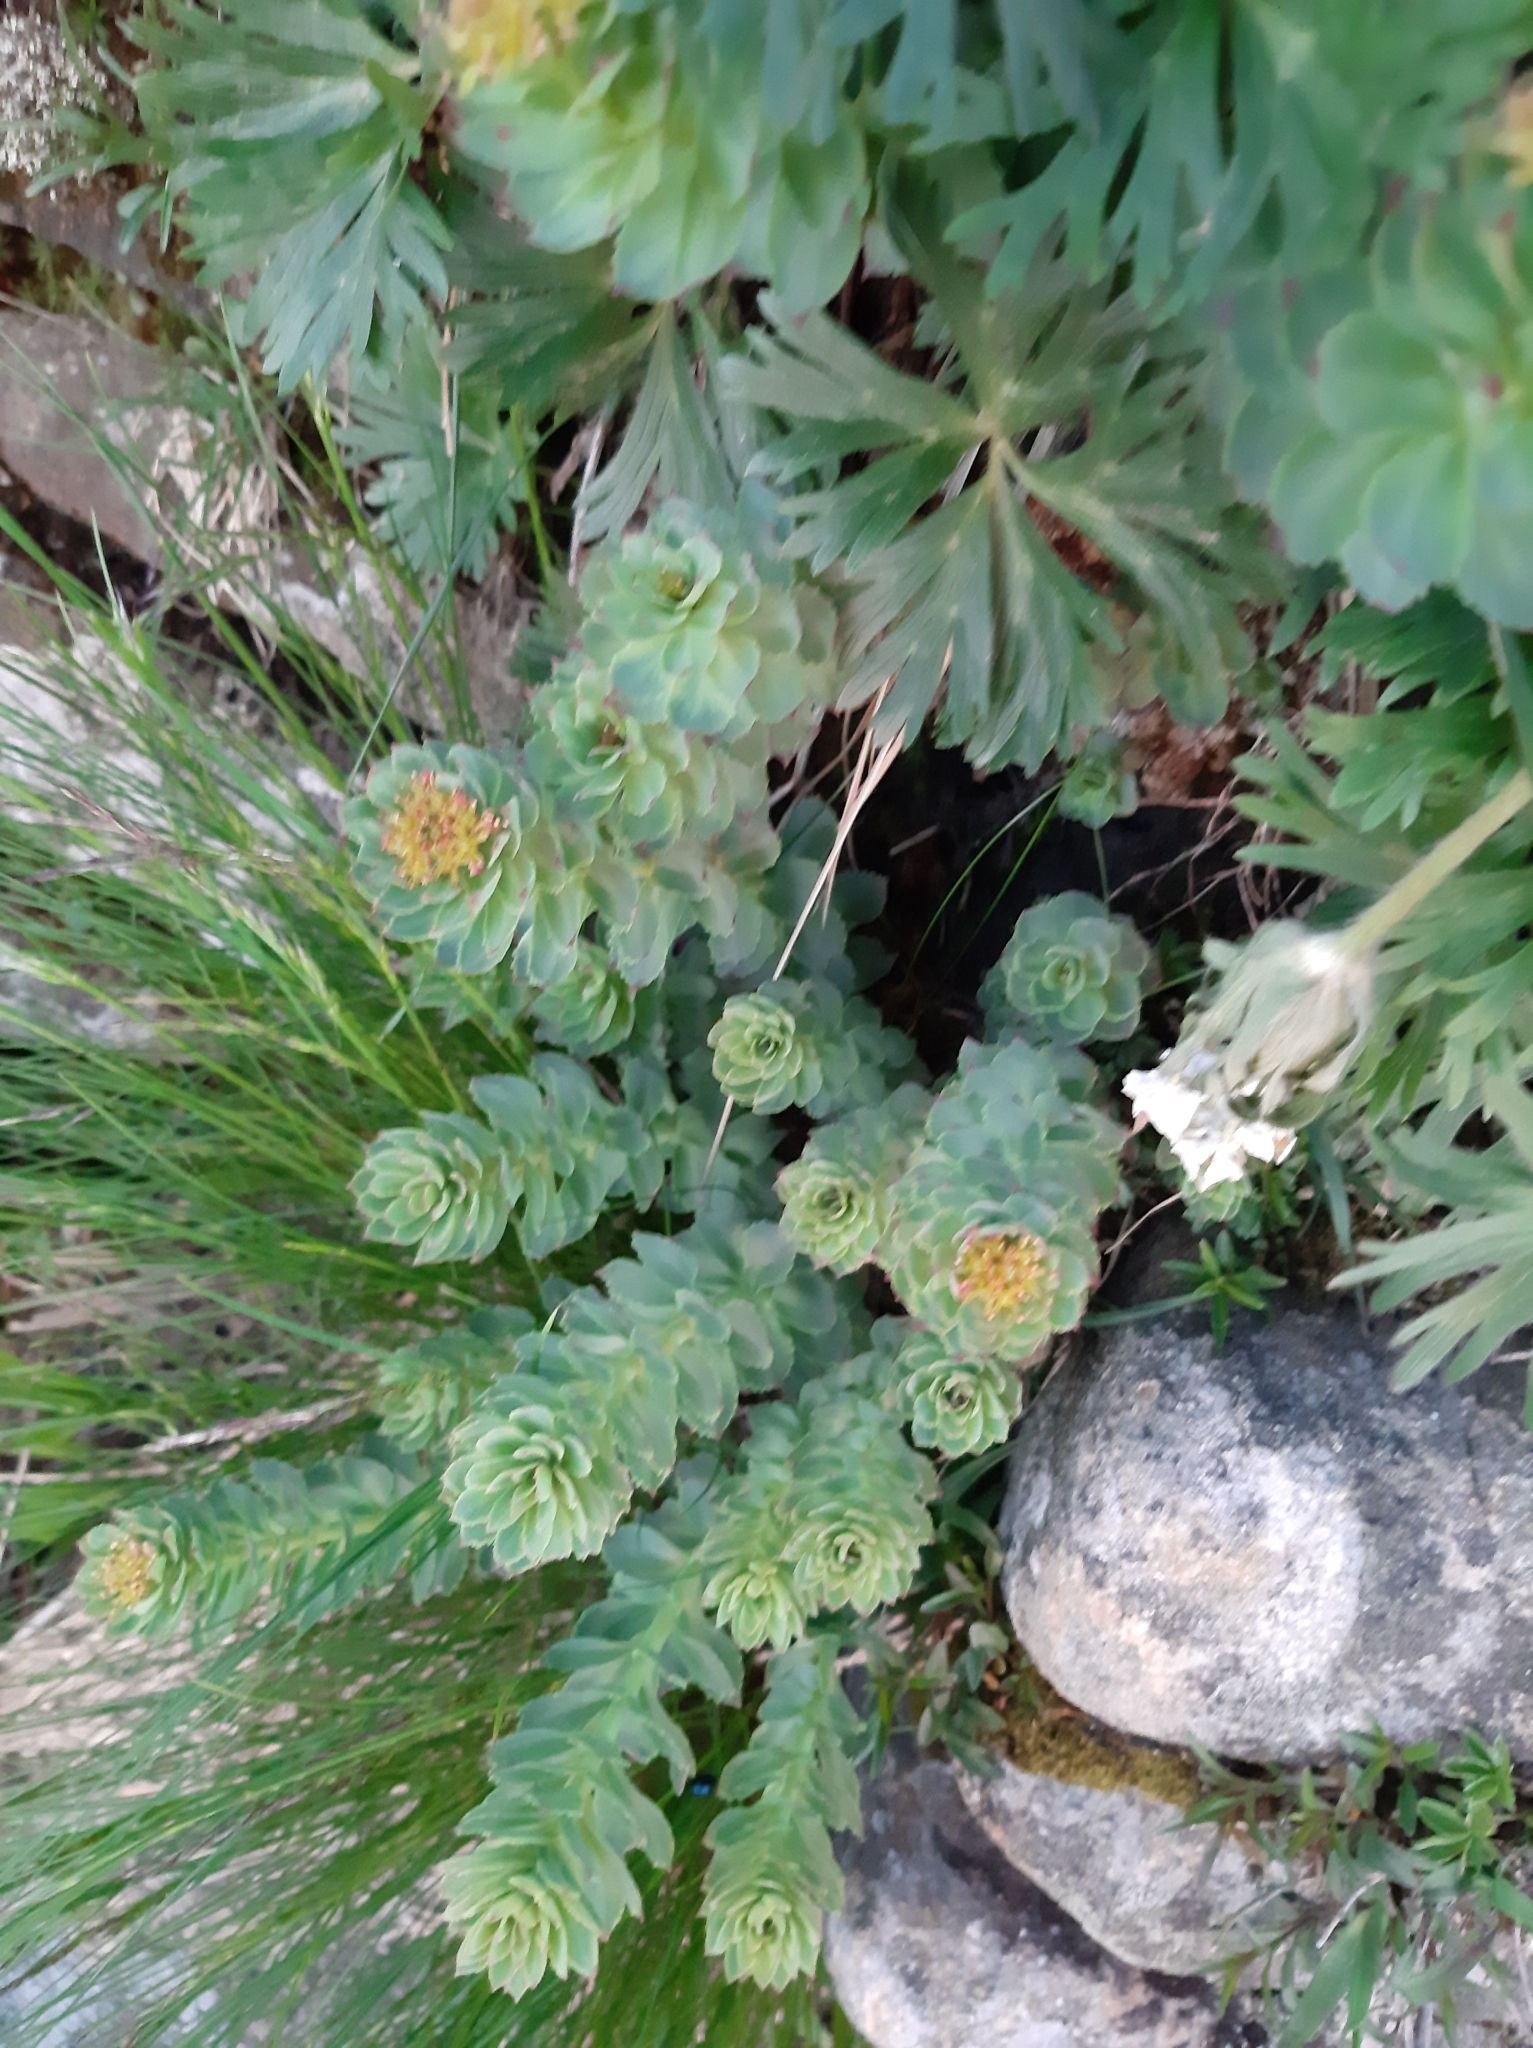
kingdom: Plantae
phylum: Tracheophyta
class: Magnoliopsida
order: Saxifragales
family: Crassulaceae
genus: Rhodiola
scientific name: Rhodiola rosea
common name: Roseroot
